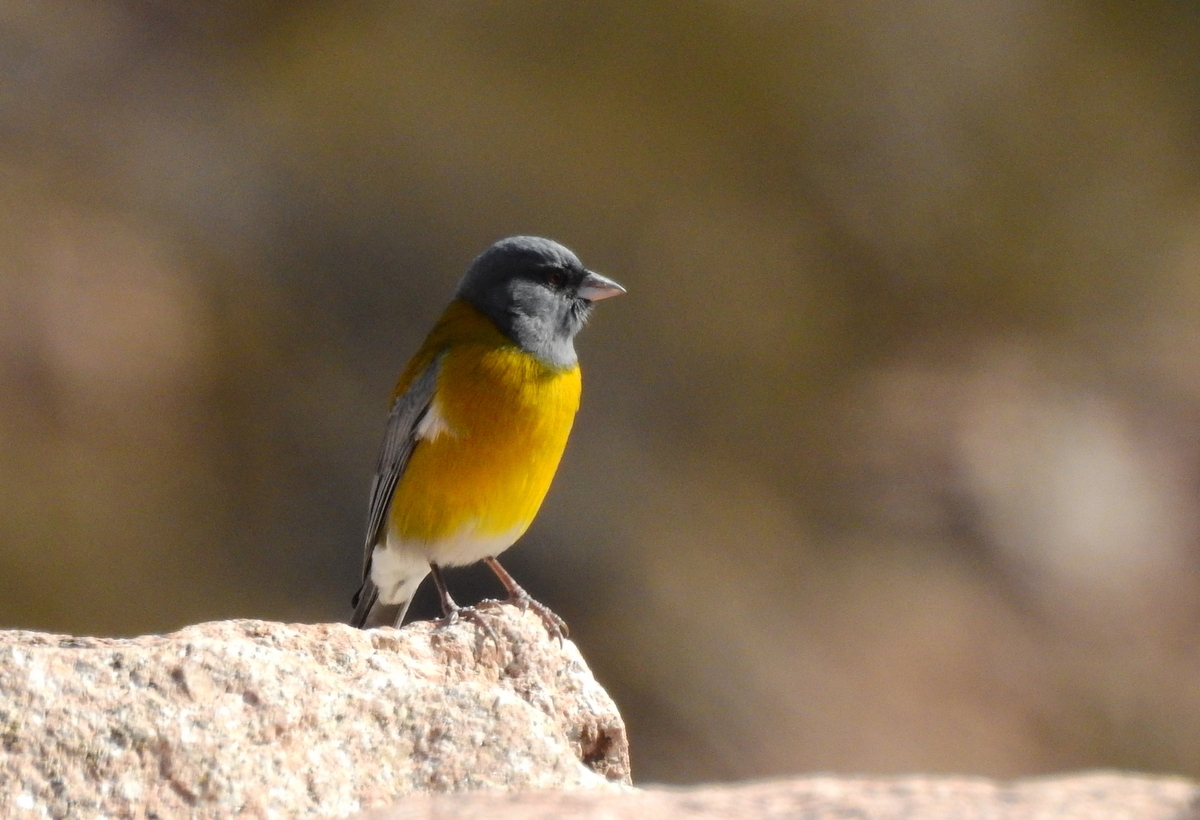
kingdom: Animalia
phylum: Chordata
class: Aves
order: Passeriformes
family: Thraupidae
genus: Phrygilus
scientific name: Phrygilus gayi
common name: Grey-hooded sierra finch
